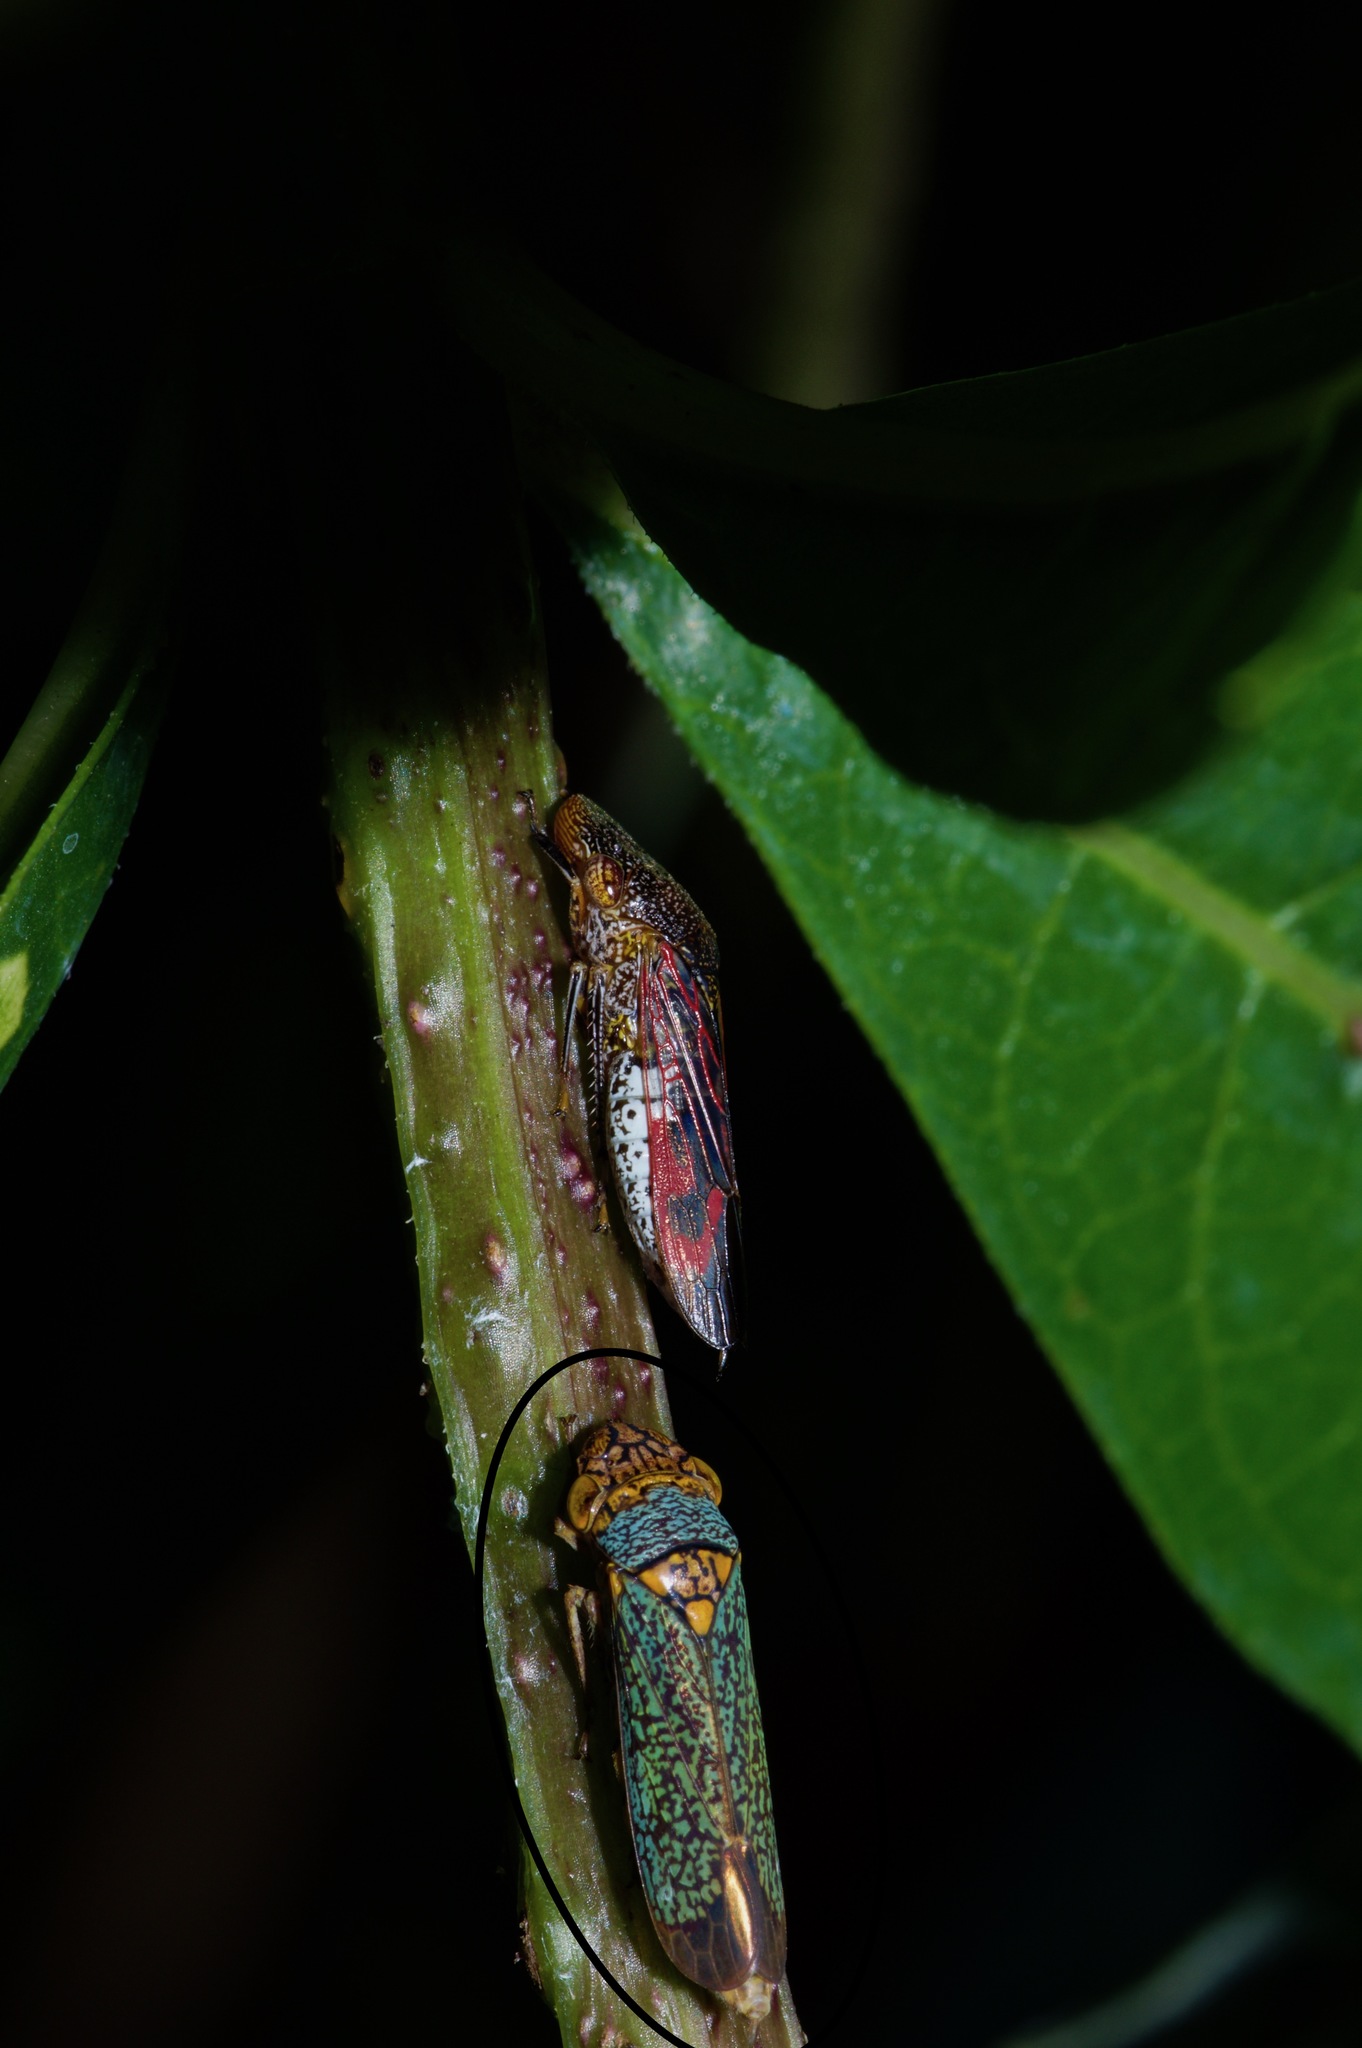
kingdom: Animalia
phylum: Arthropoda
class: Insecta
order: Hemiptera
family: Cicadellidae
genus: Oncometopia
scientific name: Oncometopia orbona
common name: Broad-headed sharpshooter
